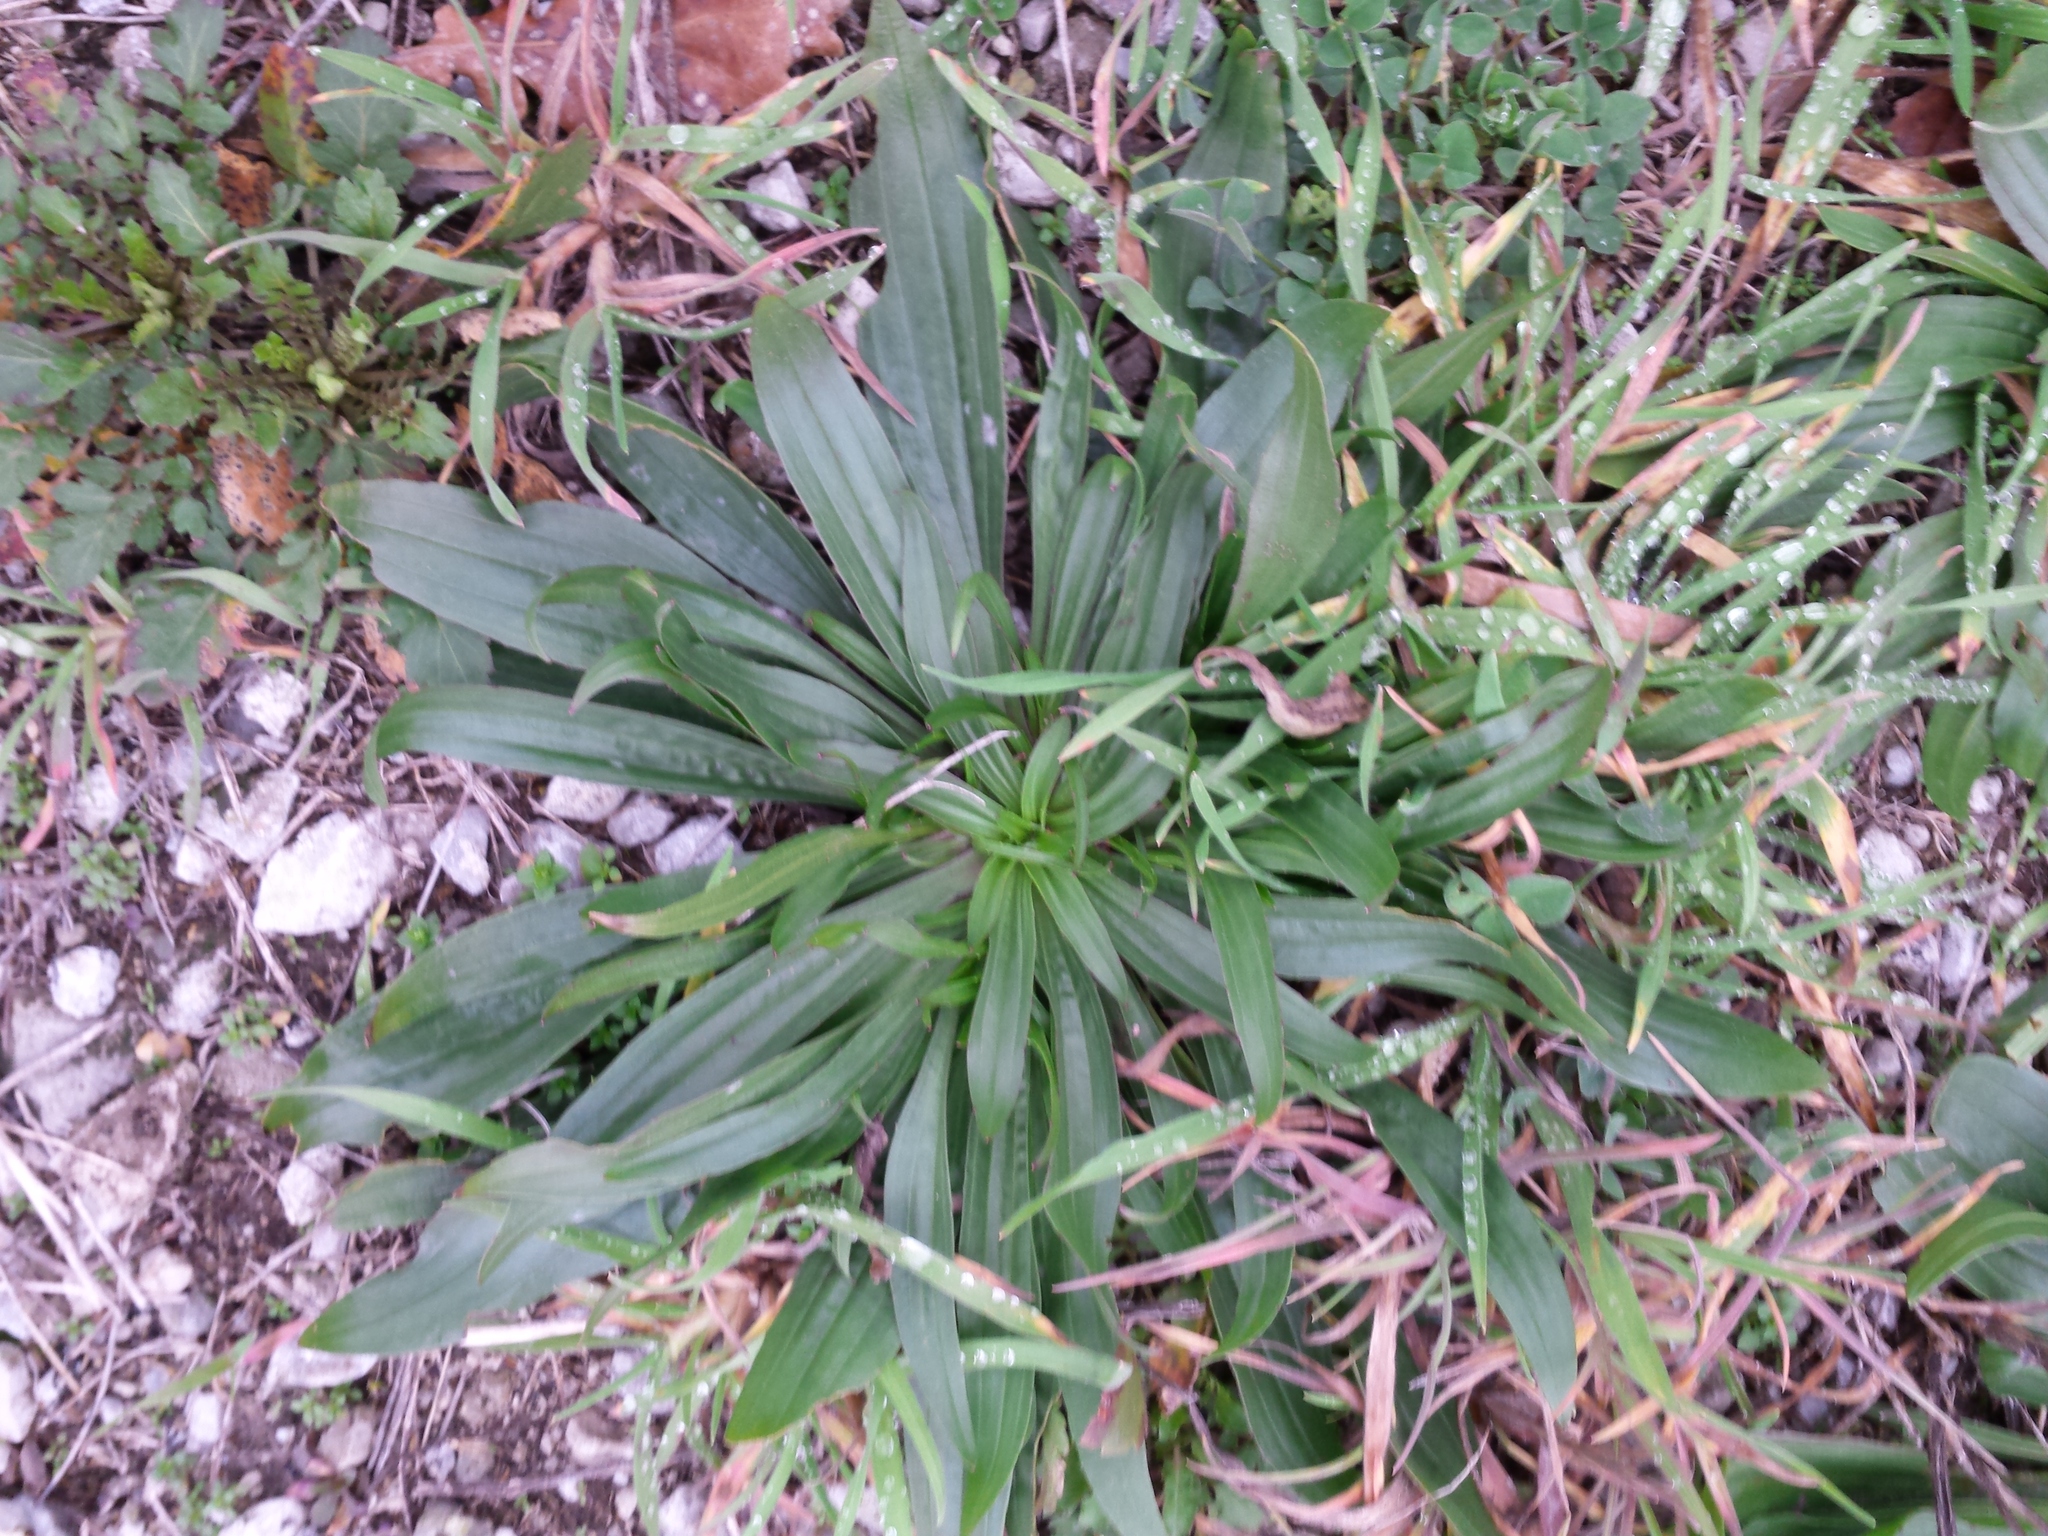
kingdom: Plantae
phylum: Tracheophyta
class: Magnoliopsida
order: Lamiales
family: Plantaginaceae
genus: Plantago
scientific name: Plantago lanceolata
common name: Ribwort plantain
